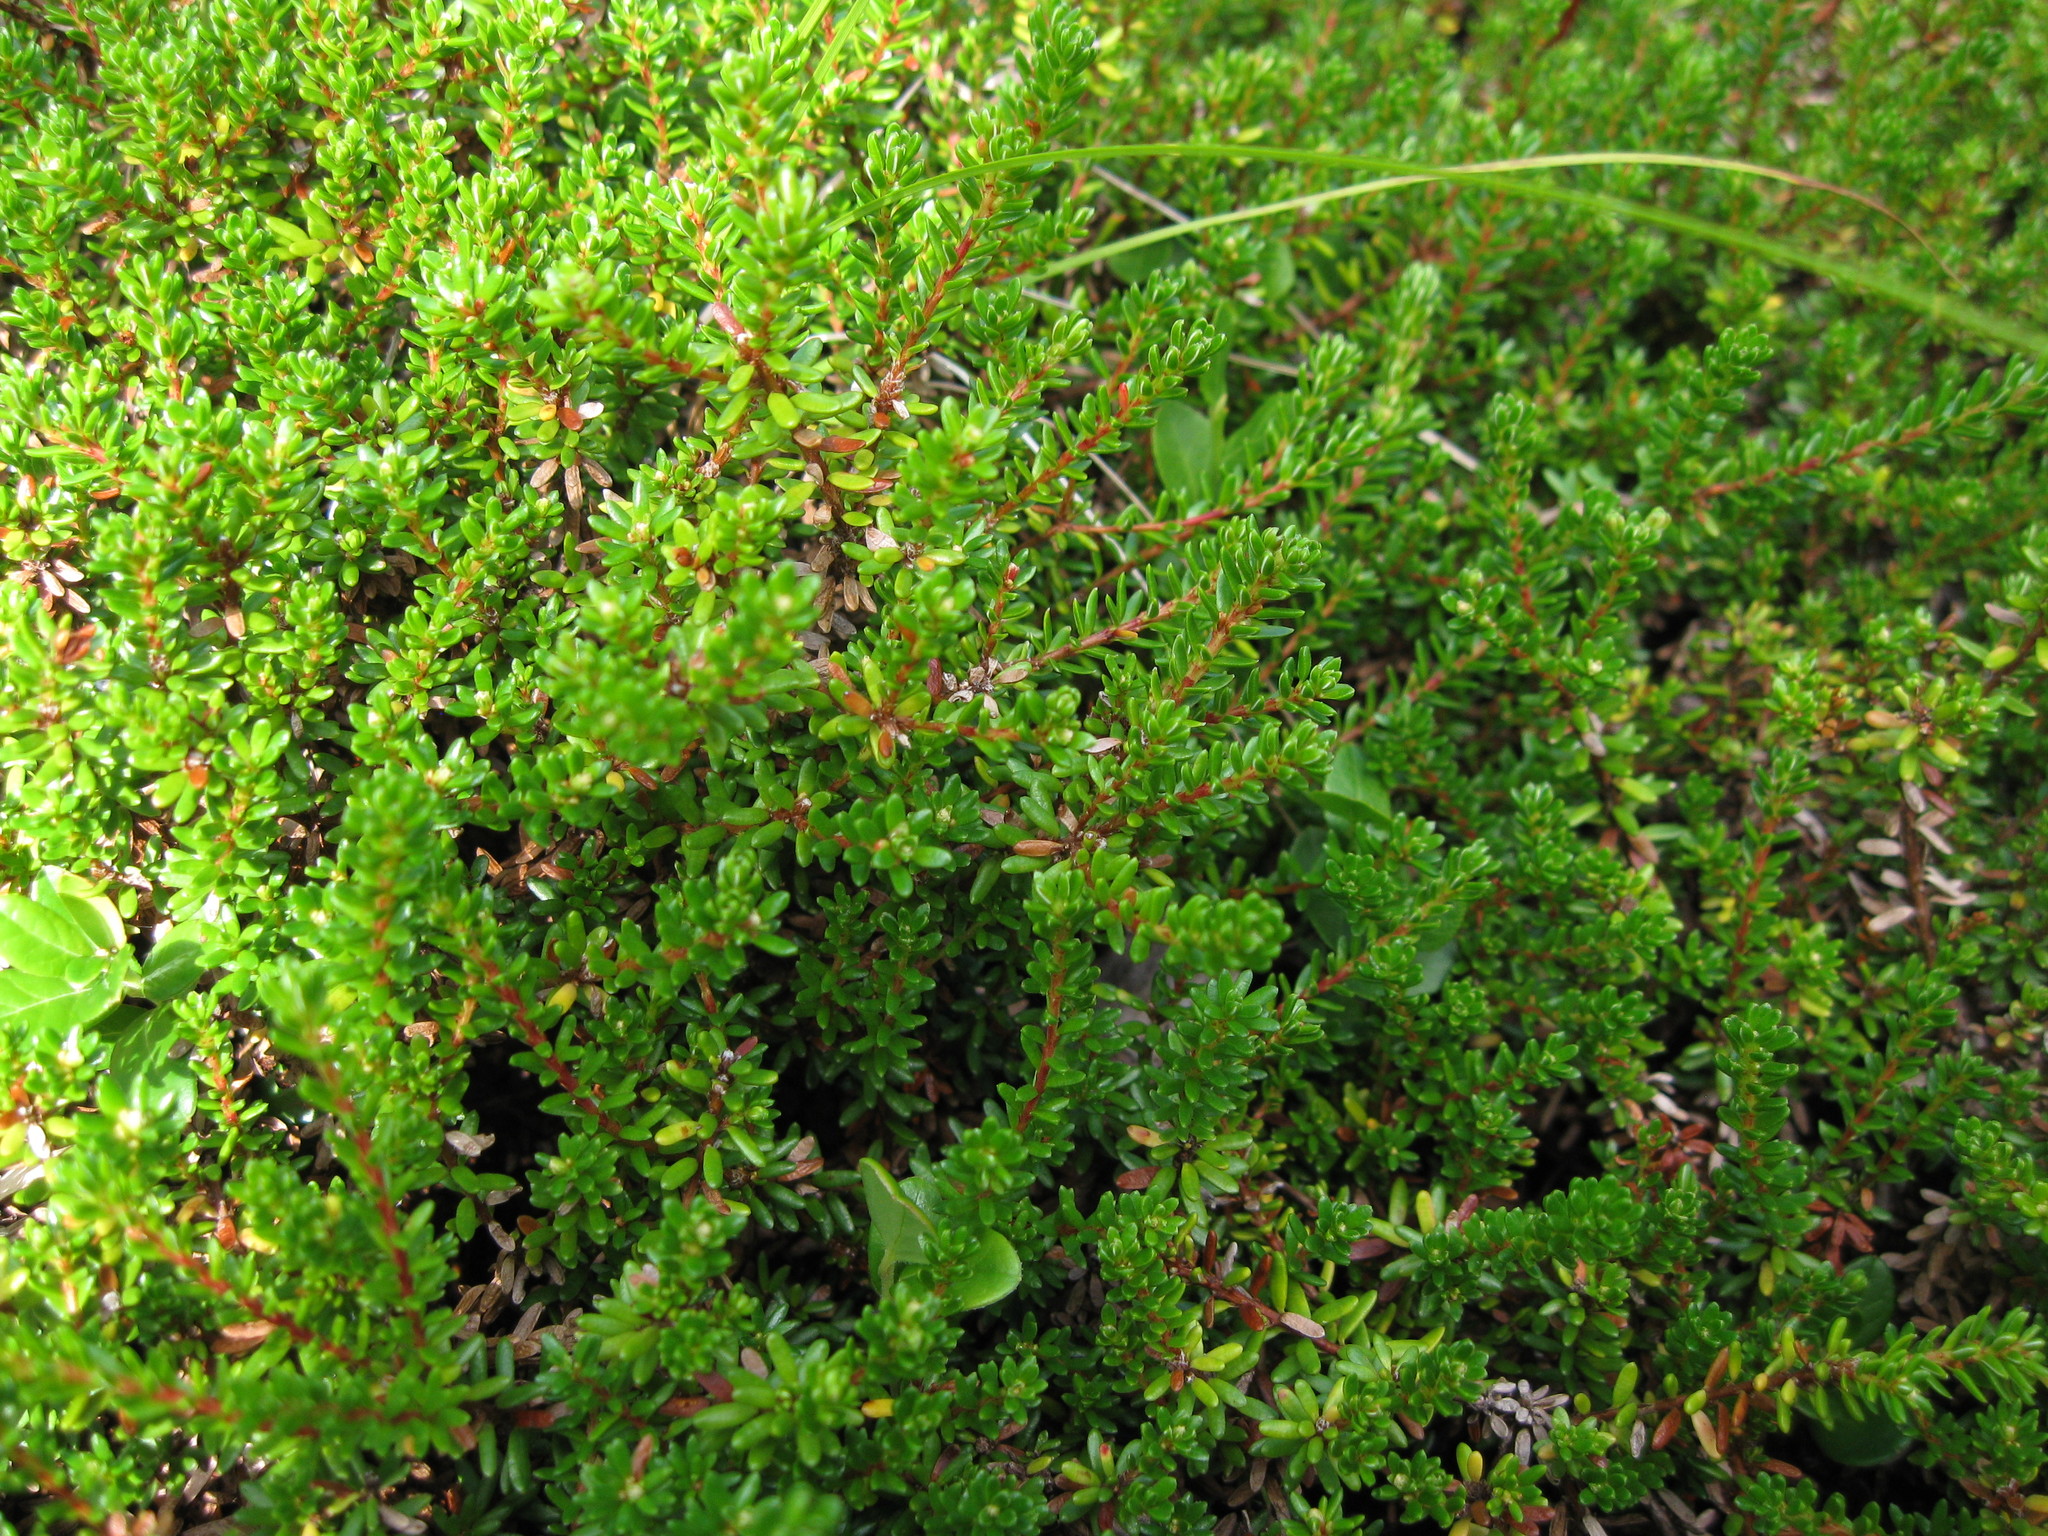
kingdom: Plantae
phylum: Tracheophyta
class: Magnoliopsida
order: Ericales
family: Ericaceae
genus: Empetrum
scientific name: Empetrum nigrum
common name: Black crowberry
